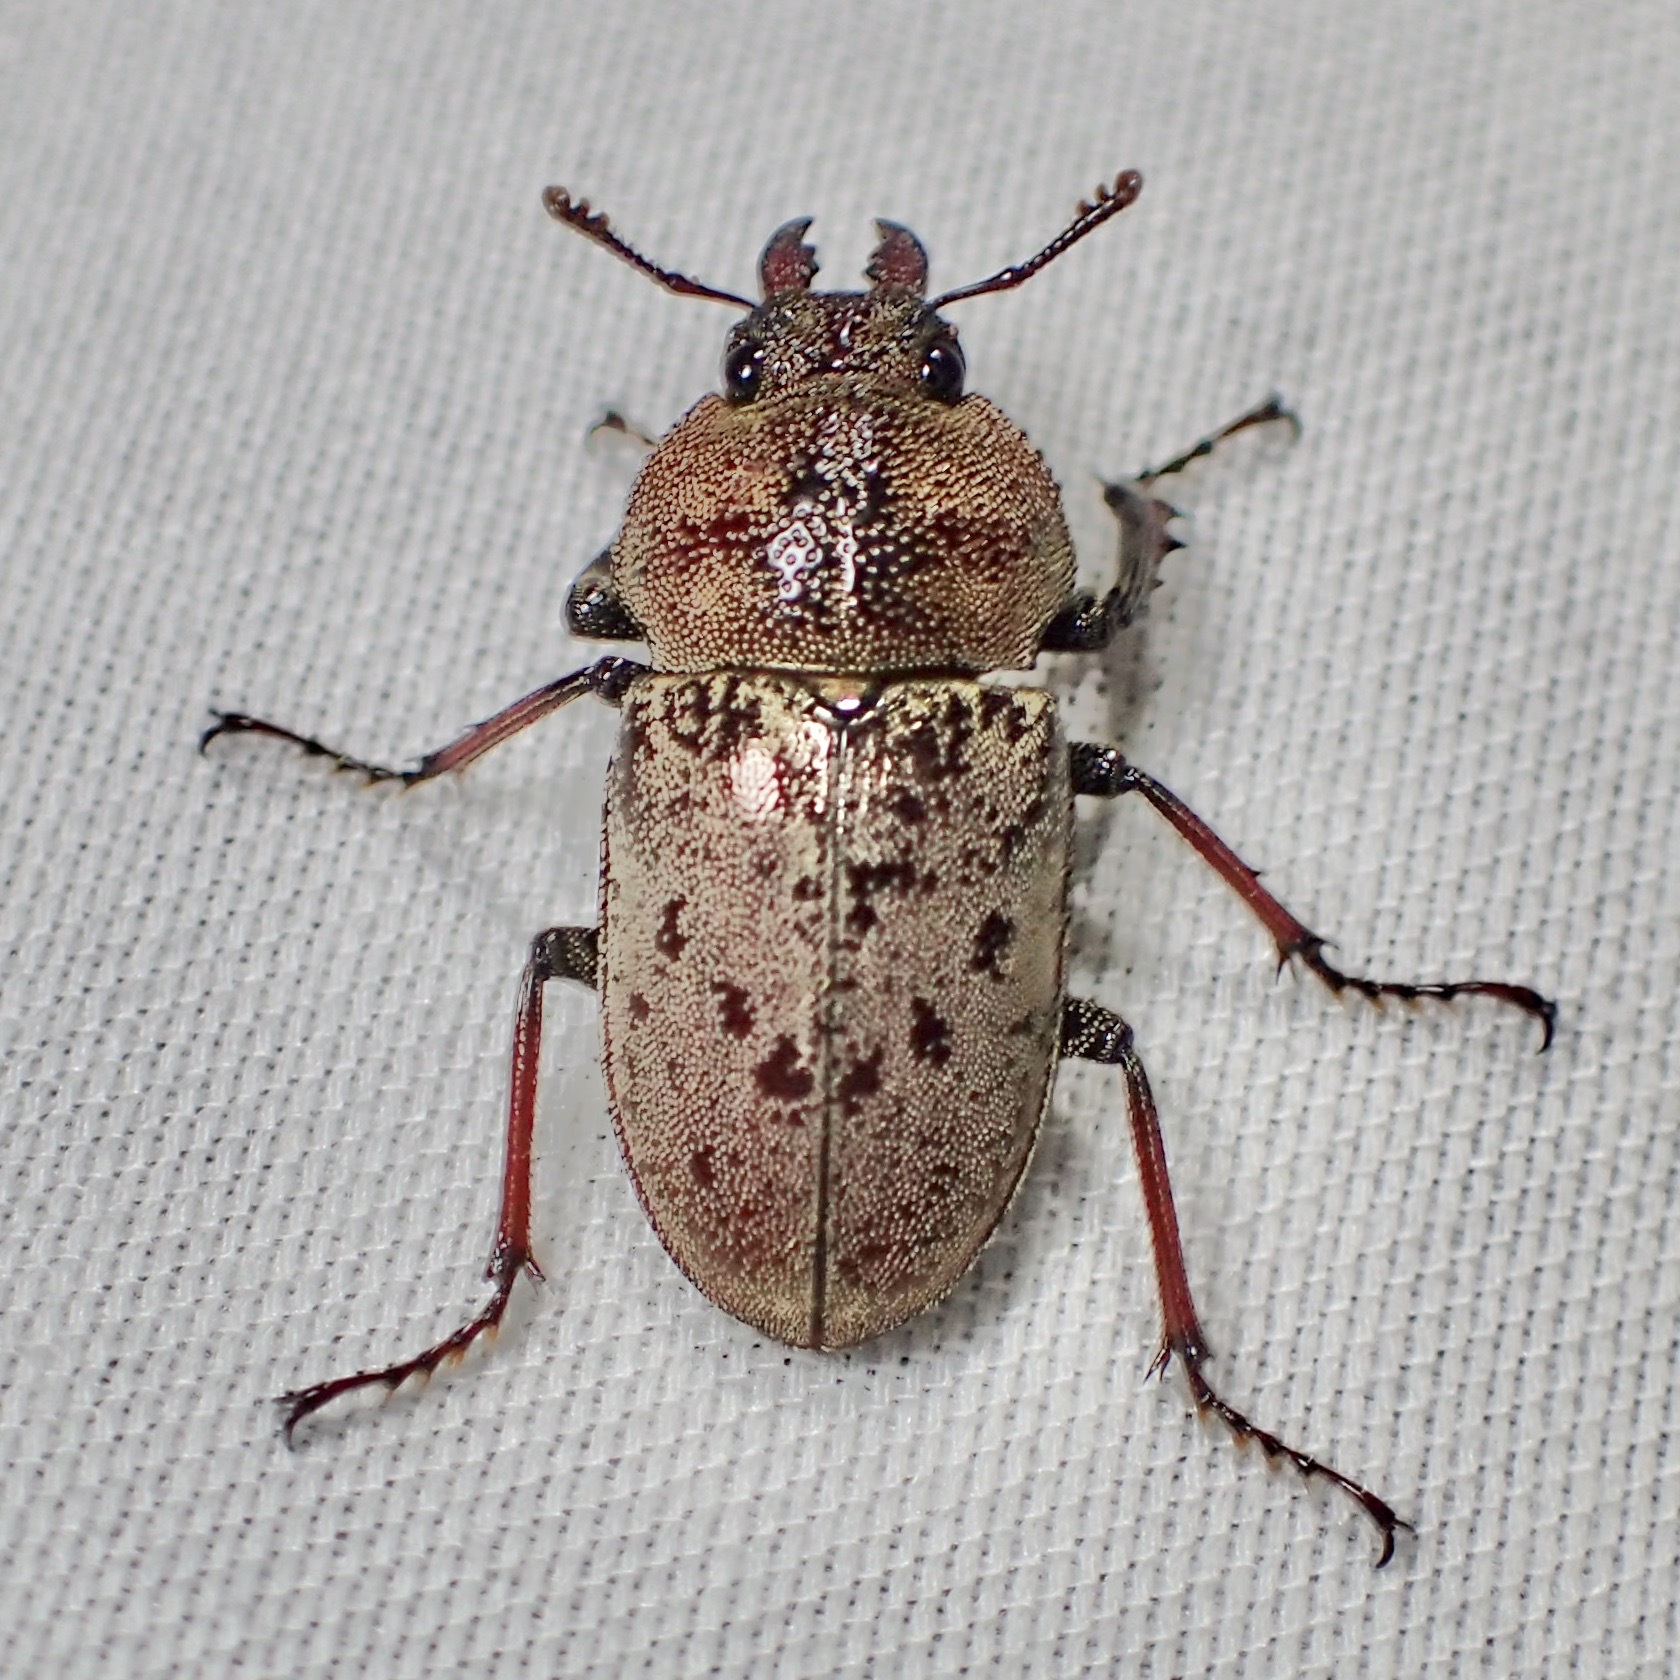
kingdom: Animalia
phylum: Arthropoda
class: Insecta
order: Coleoptera
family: Lucanidae
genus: Cacostomus
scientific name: Cacostomus squamosus
